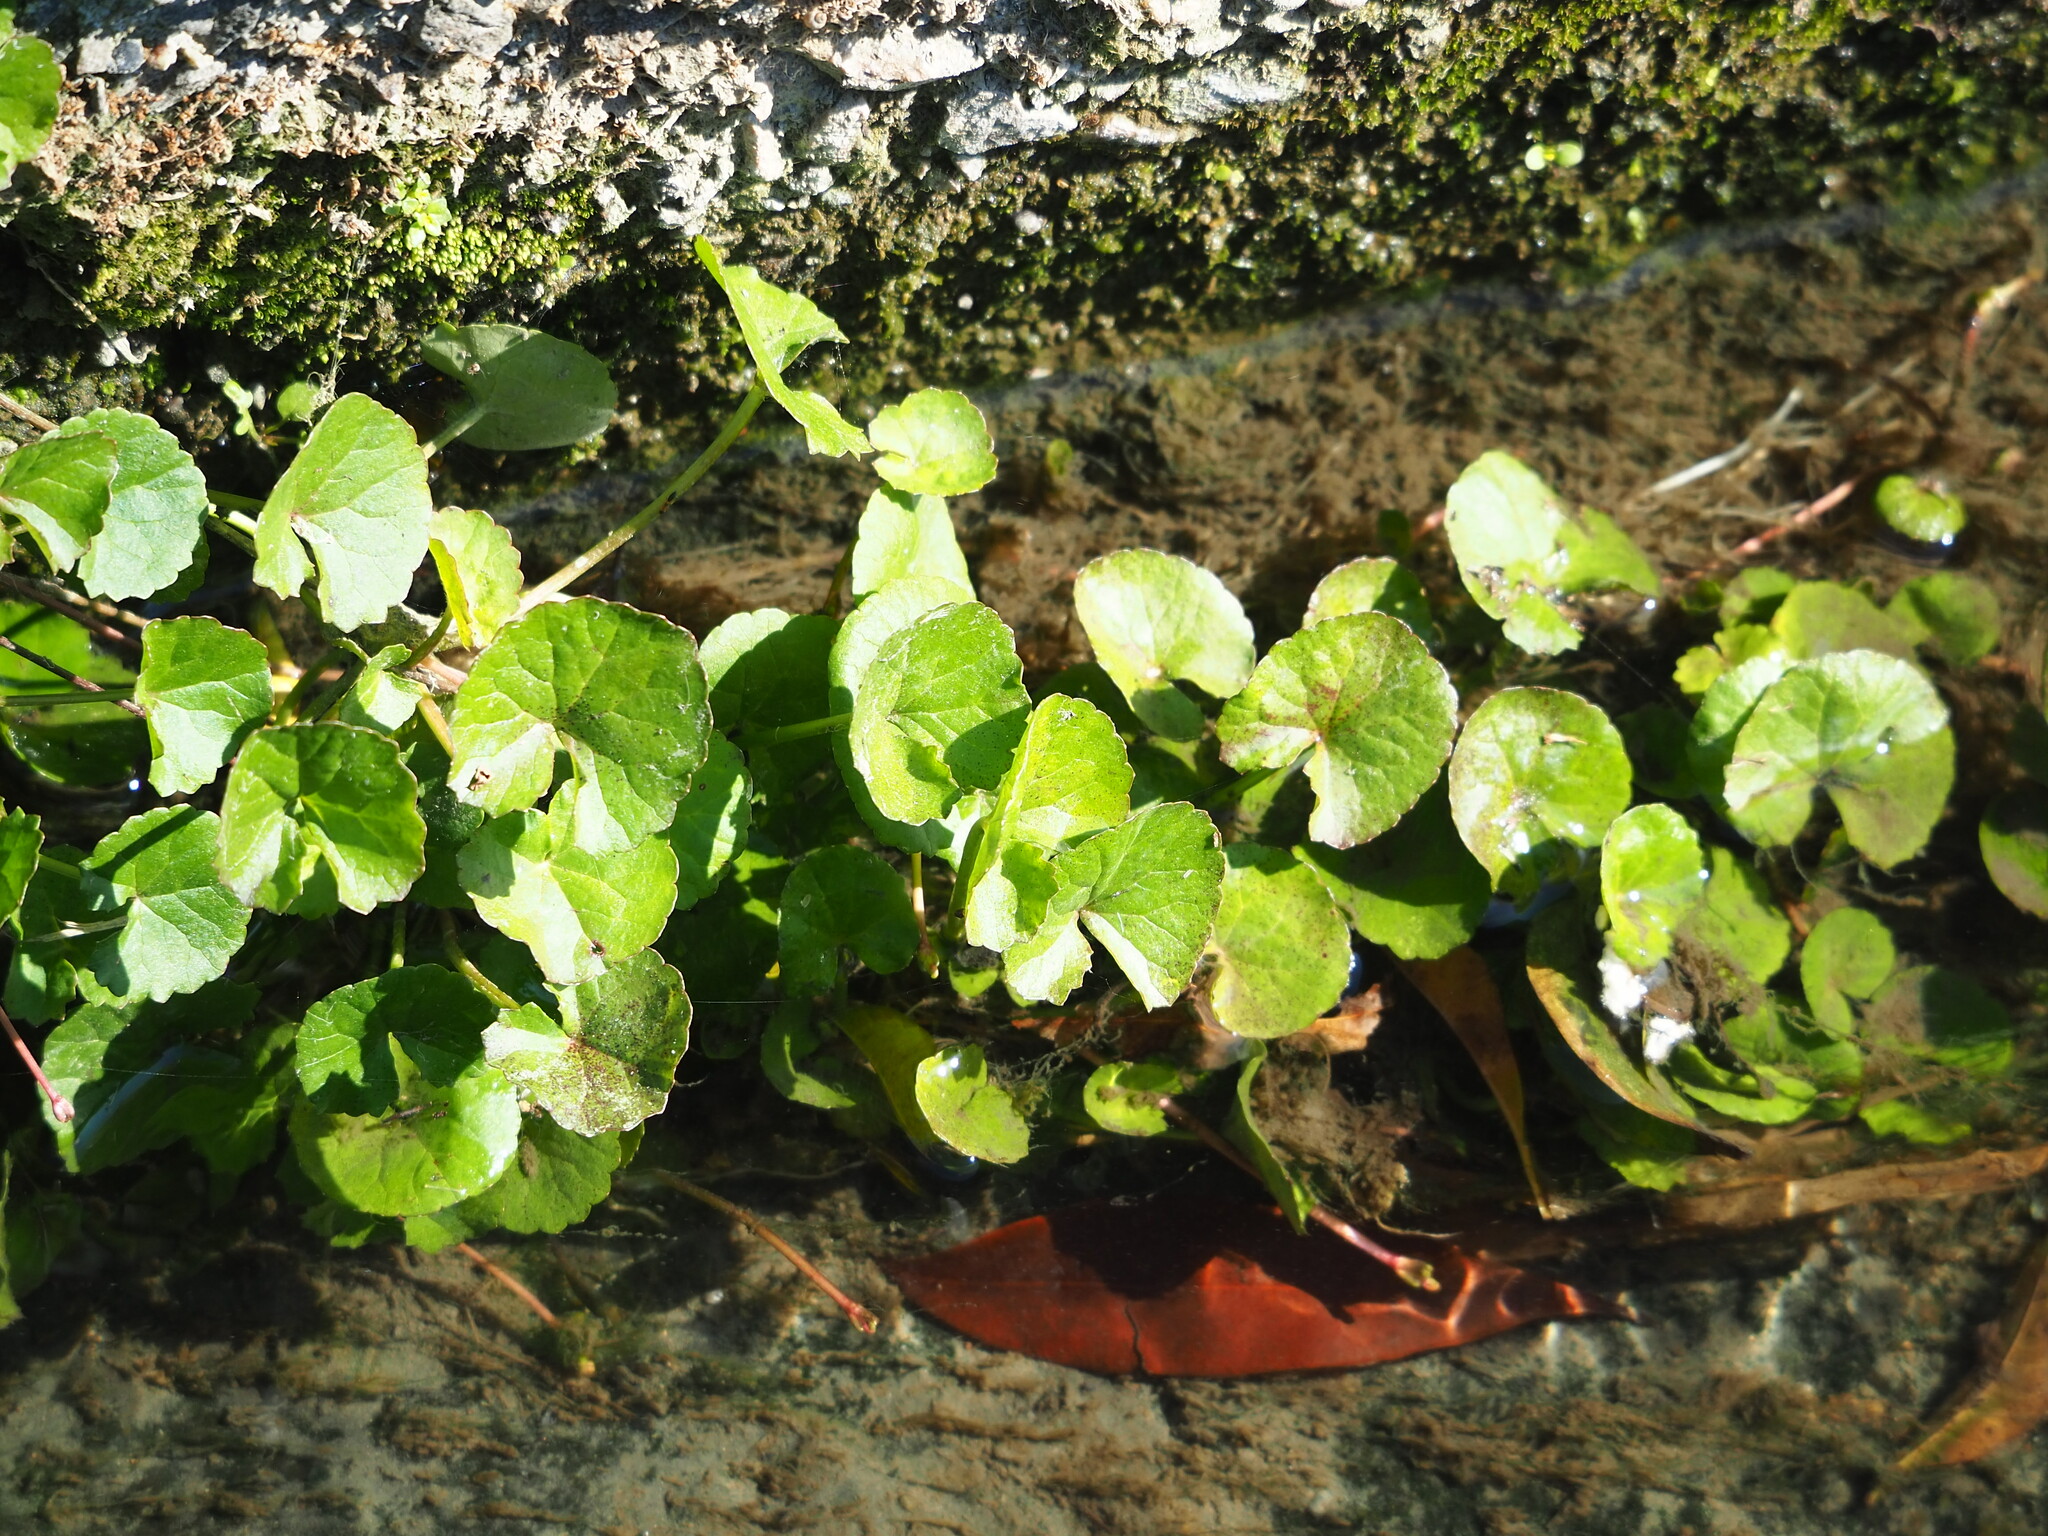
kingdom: Plantae
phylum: Tracheophyta
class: Magnoliopsida
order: Apiales
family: Apiaceae
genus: Centella
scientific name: Centella asiatica
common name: Spadeleaf
